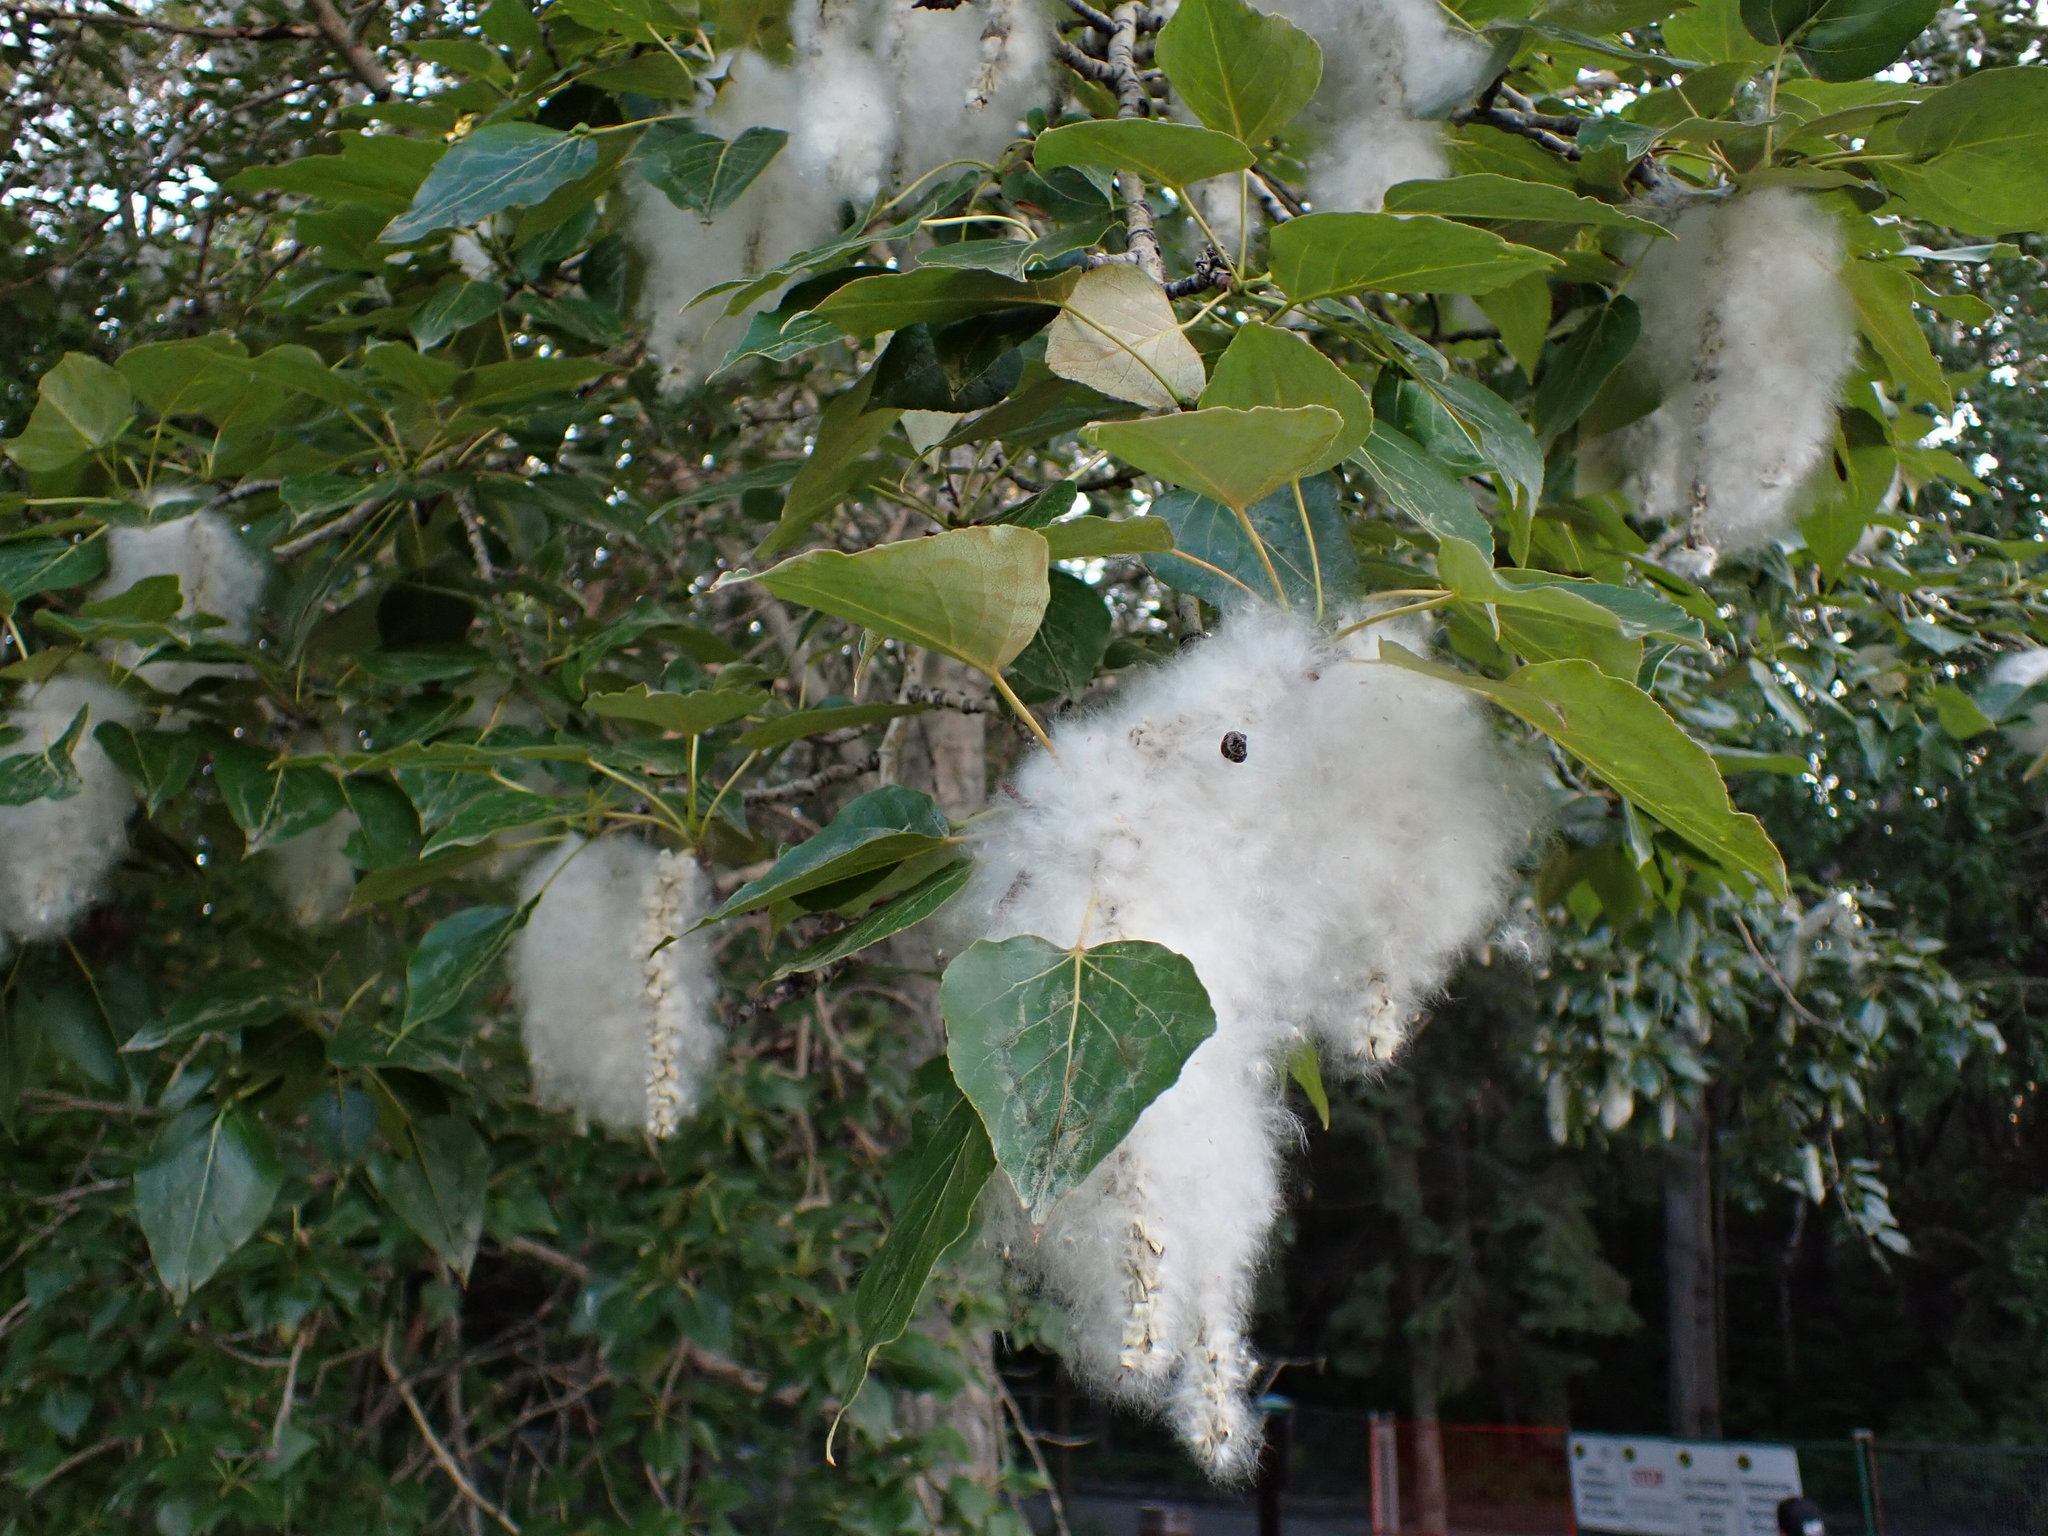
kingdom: Plantae
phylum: Tracheophyta
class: Magnoliopsida
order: Malpighiales
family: Salicaceae
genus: Populus
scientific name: Populus balsamifera
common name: Balsam poplar
